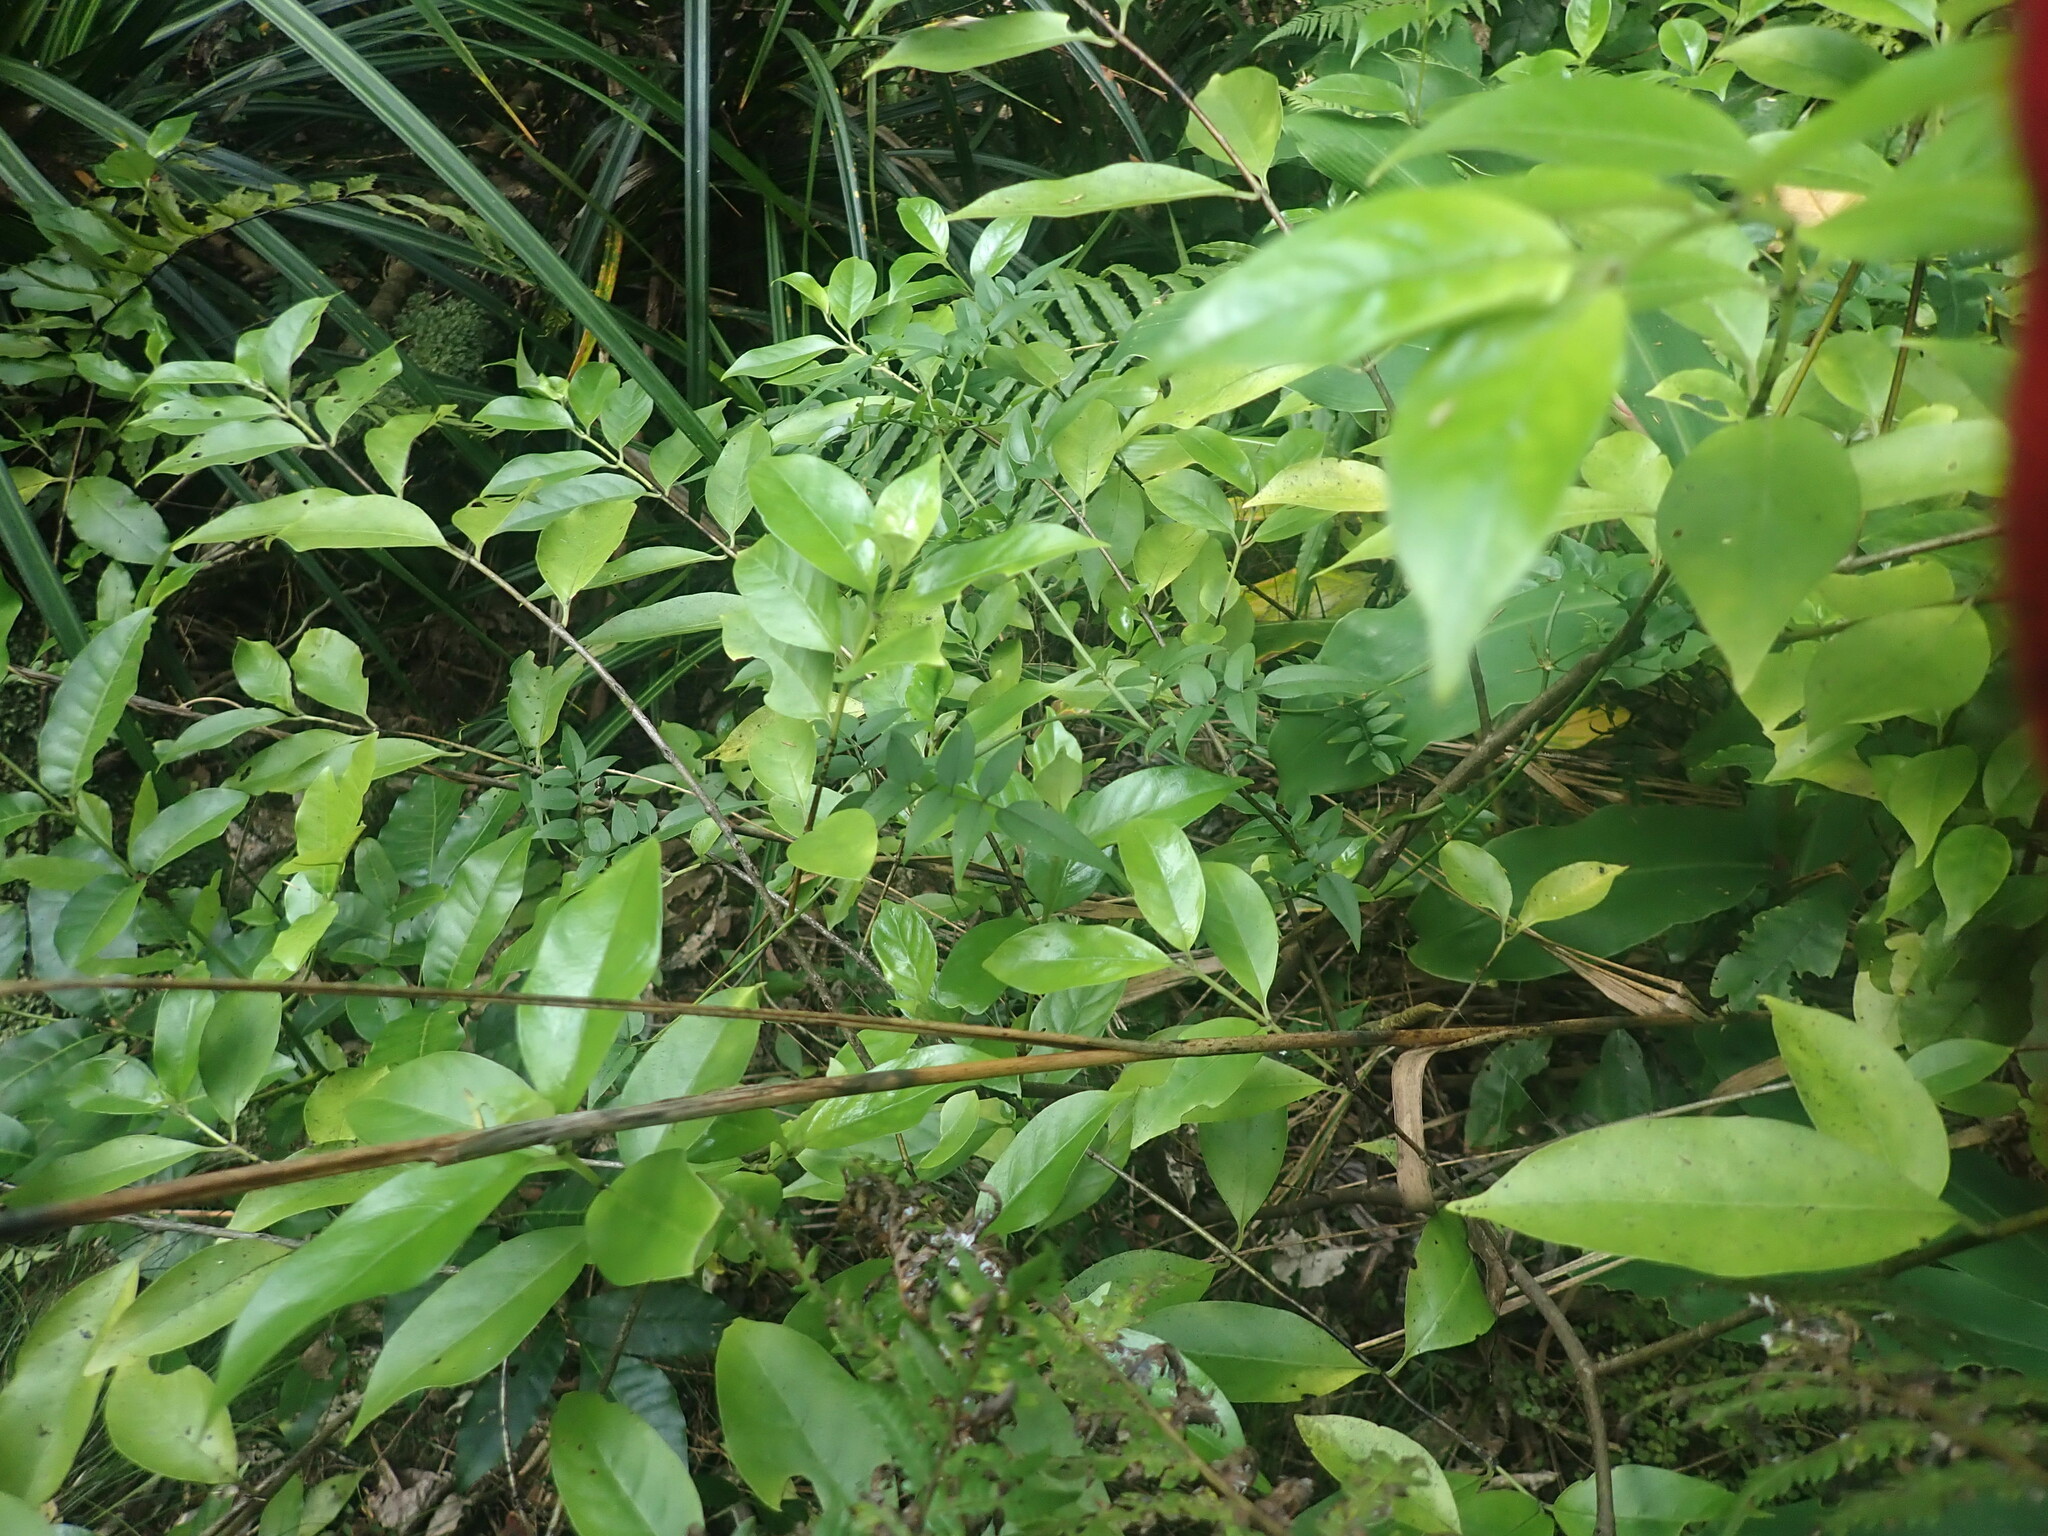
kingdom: Plantae
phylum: Tracheophyta
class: Magnoliopsida
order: Lamiales
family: Oleaceae
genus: Jasminum
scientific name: Jasminum polyanthum
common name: Pink jasmine
